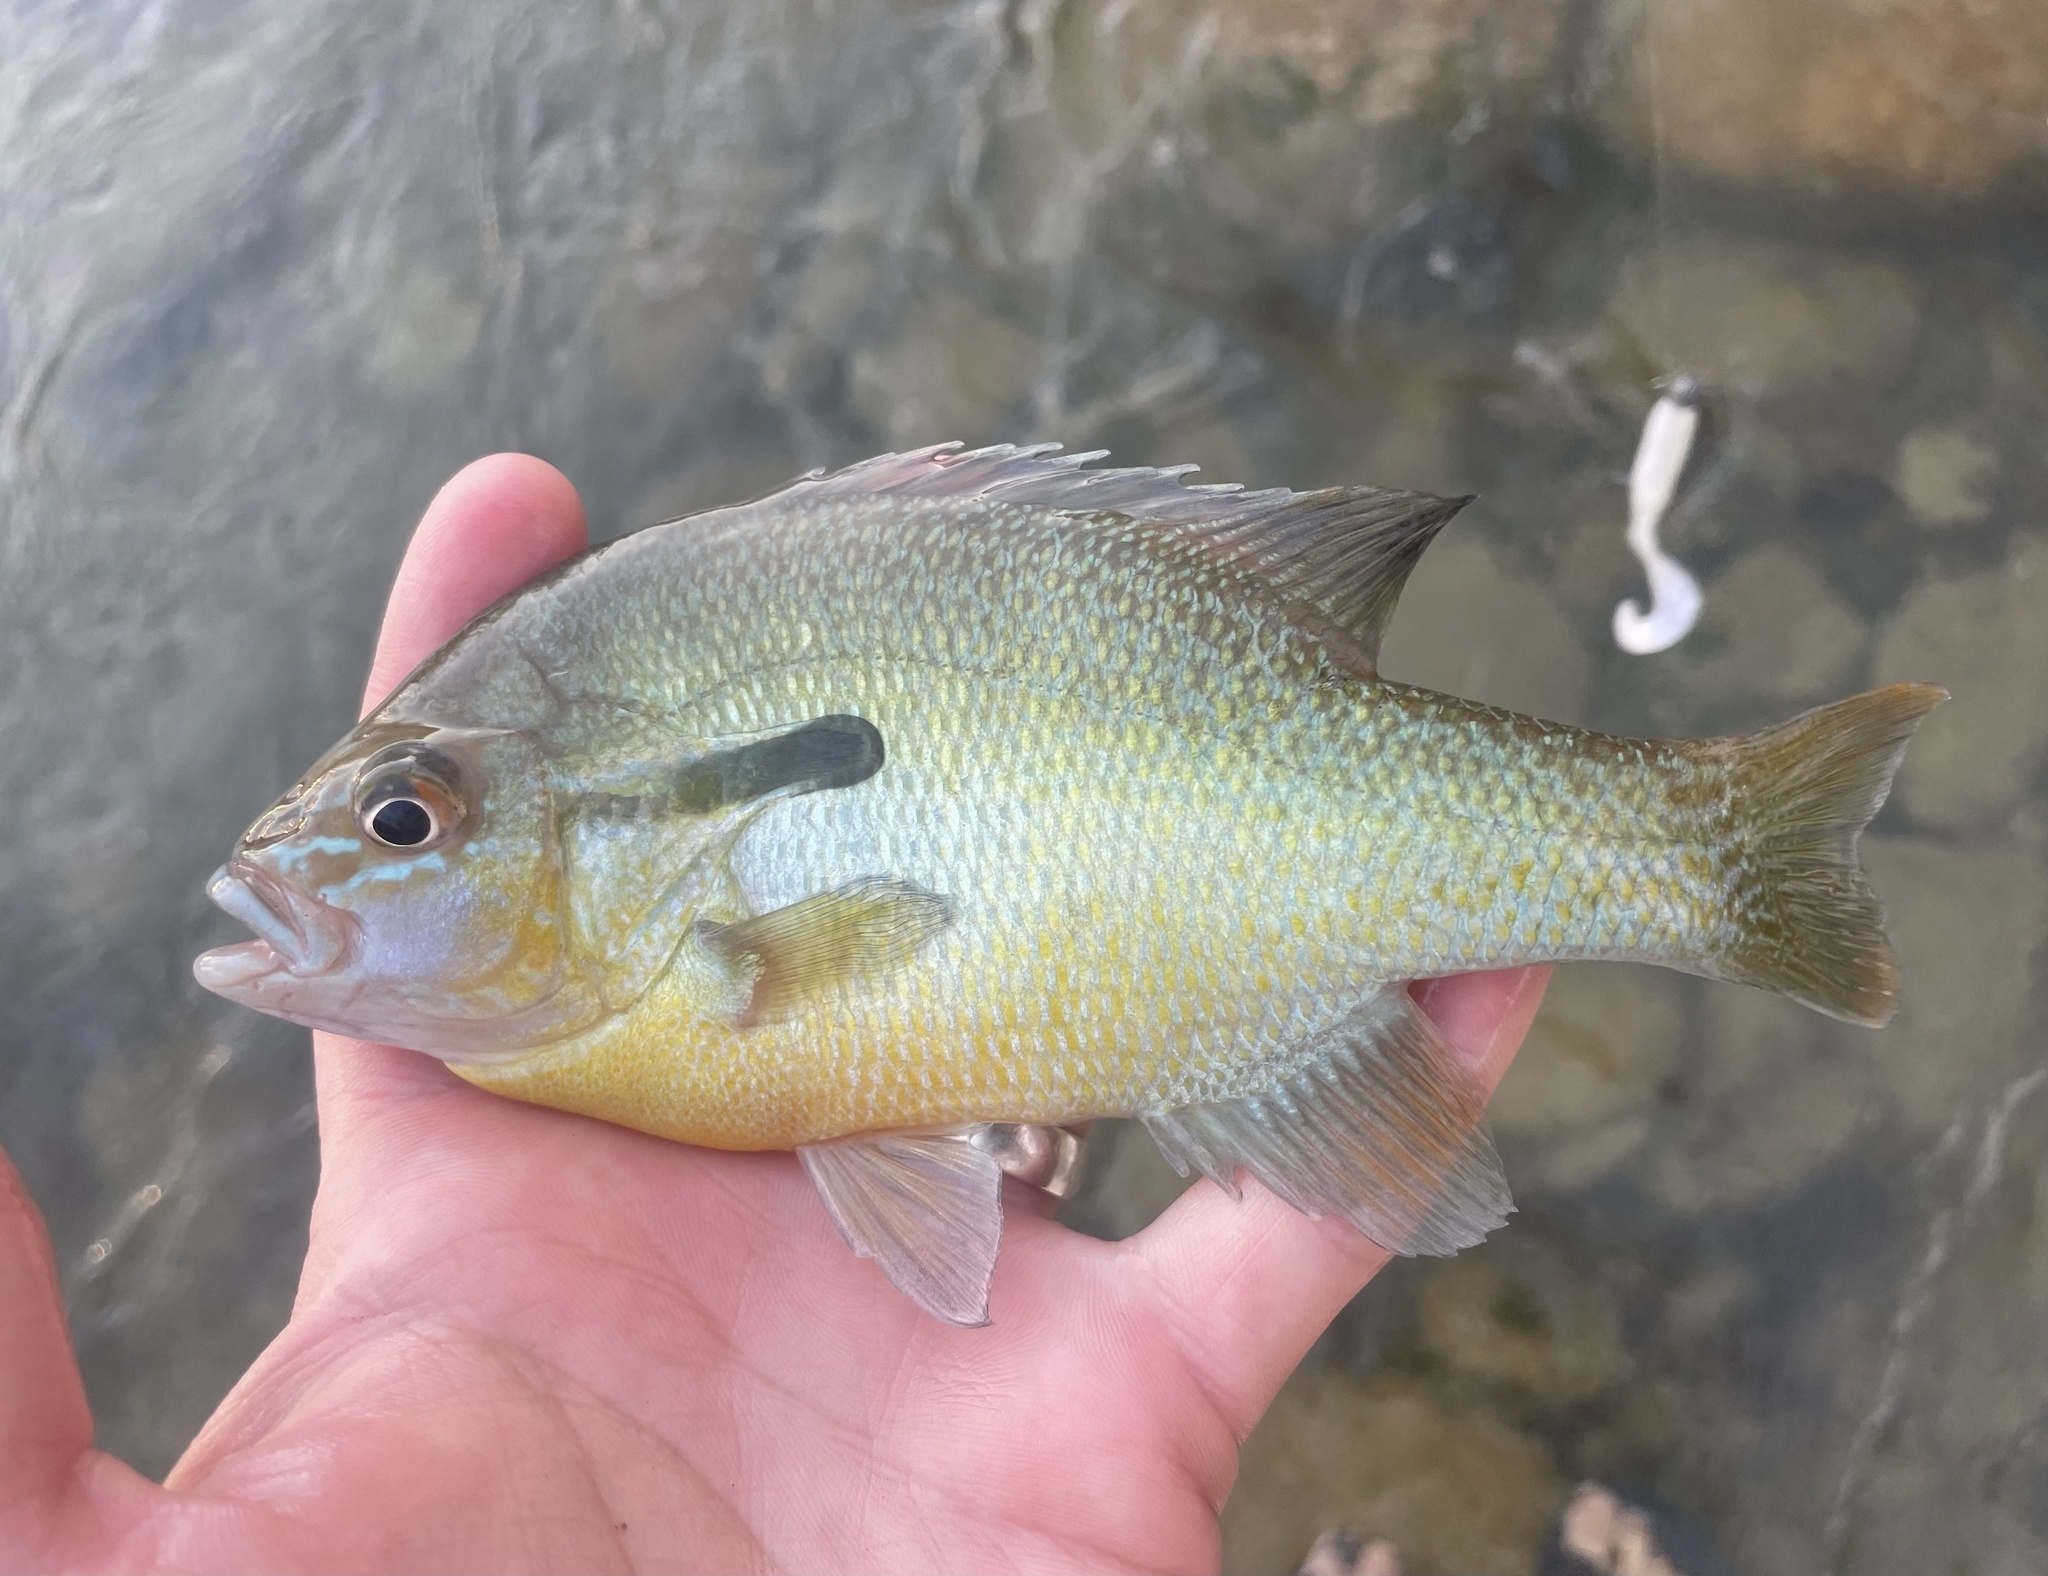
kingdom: Animalia
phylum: Chordata
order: Perciformes
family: Centrarchidae
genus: Lepomis
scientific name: Lepomis auritus
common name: Redbreast sunfish
